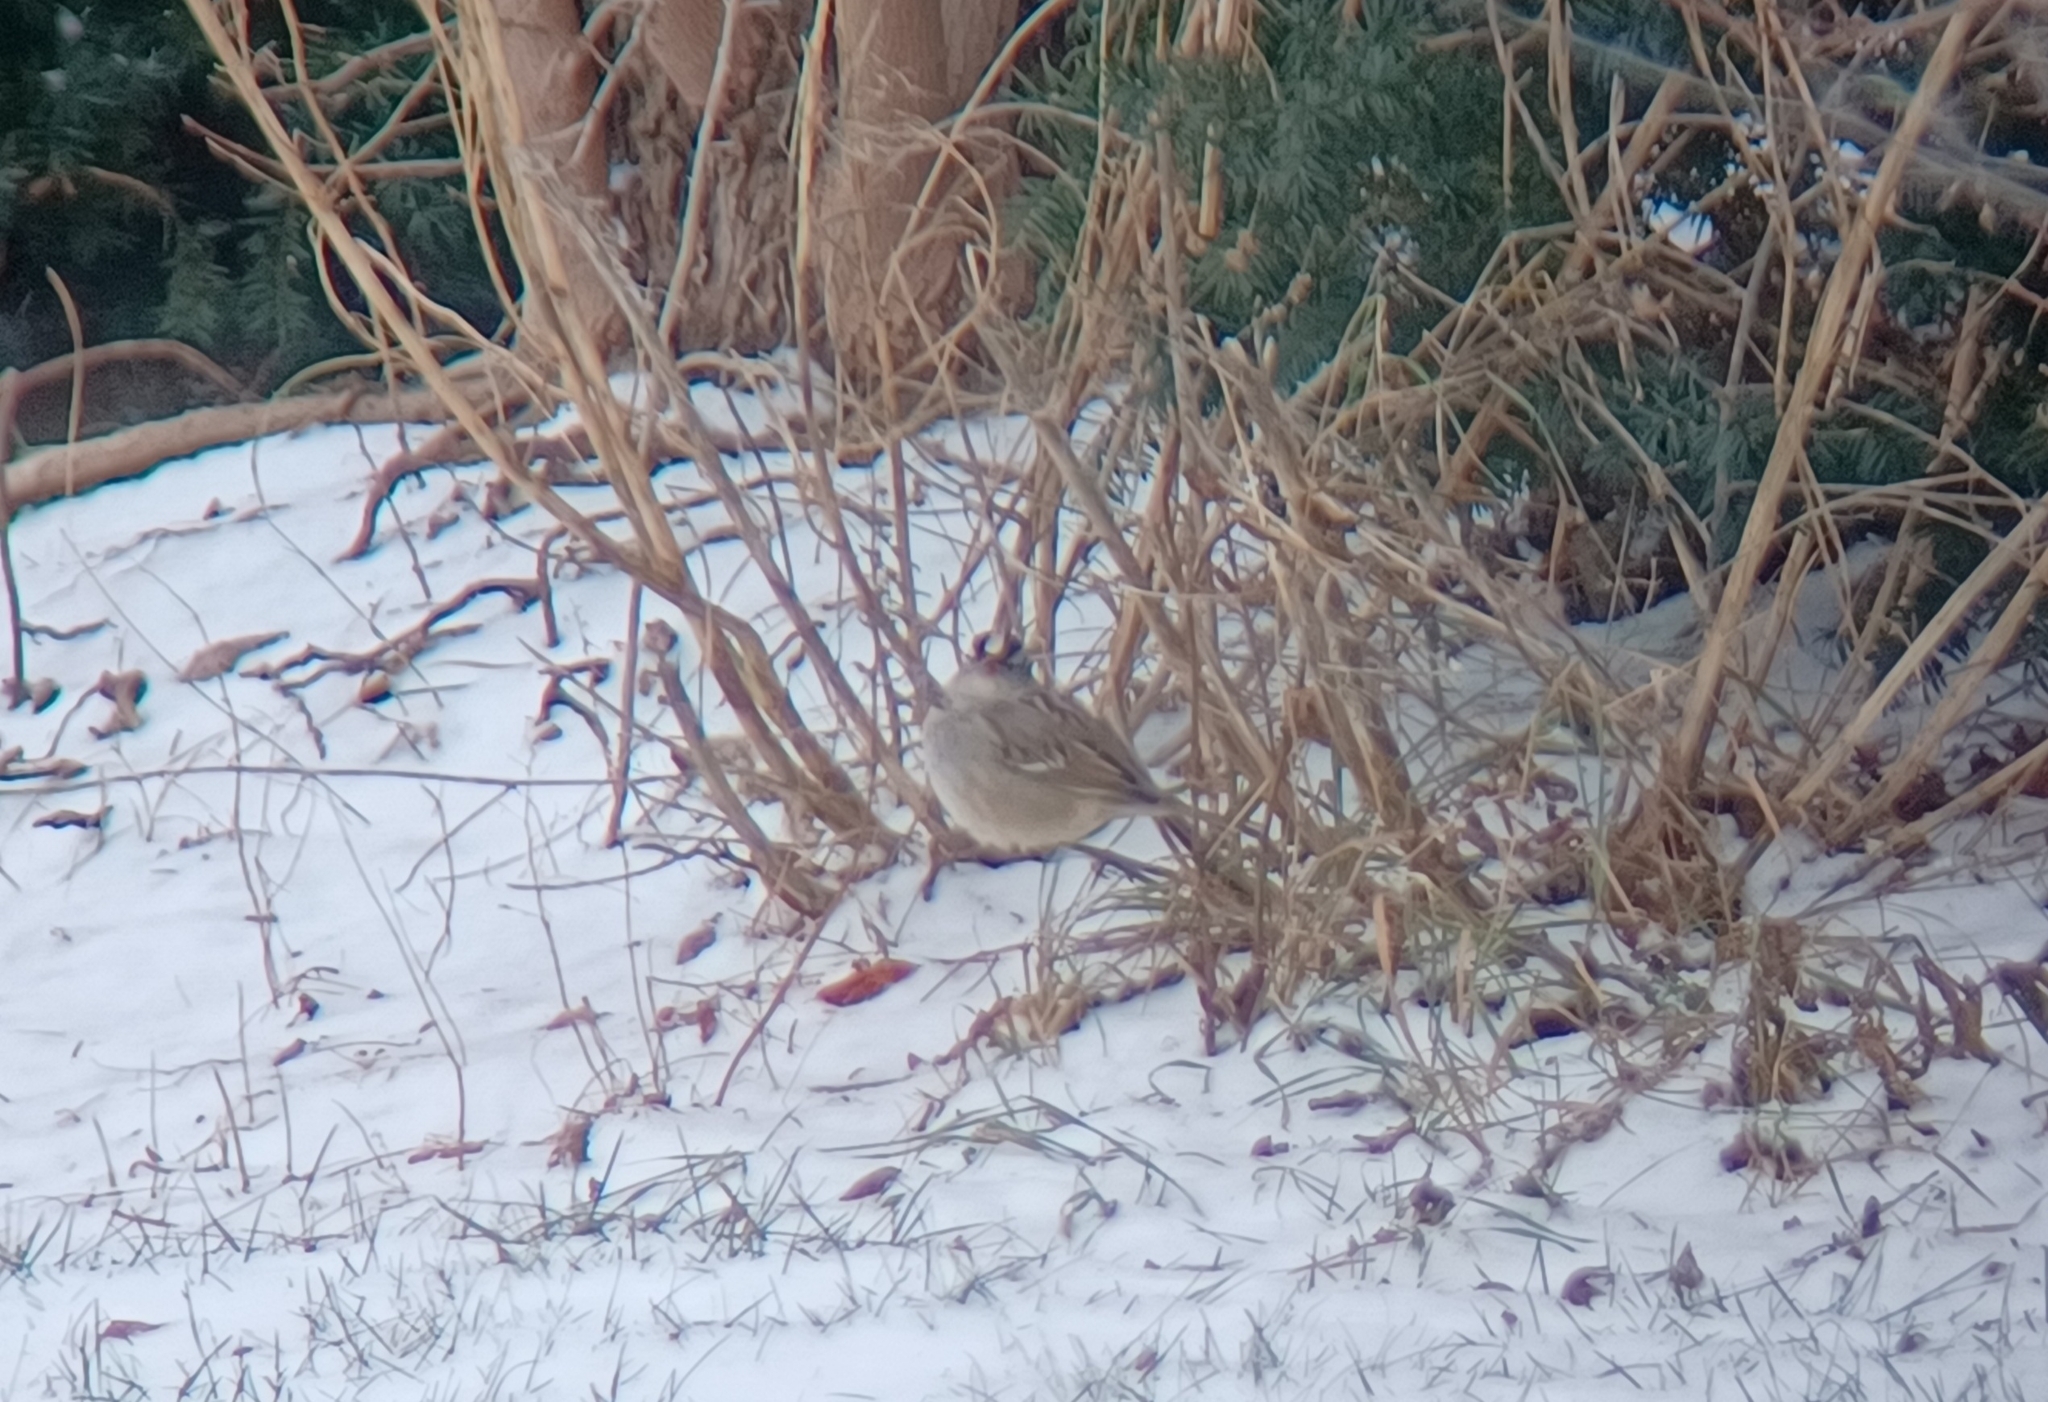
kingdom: Animalia
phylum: Chordata
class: Aves
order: Passeriformes
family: Passerellidae
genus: Zonotrichia
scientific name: Zonotrichia leucophrys
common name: White-crowned sparrow
